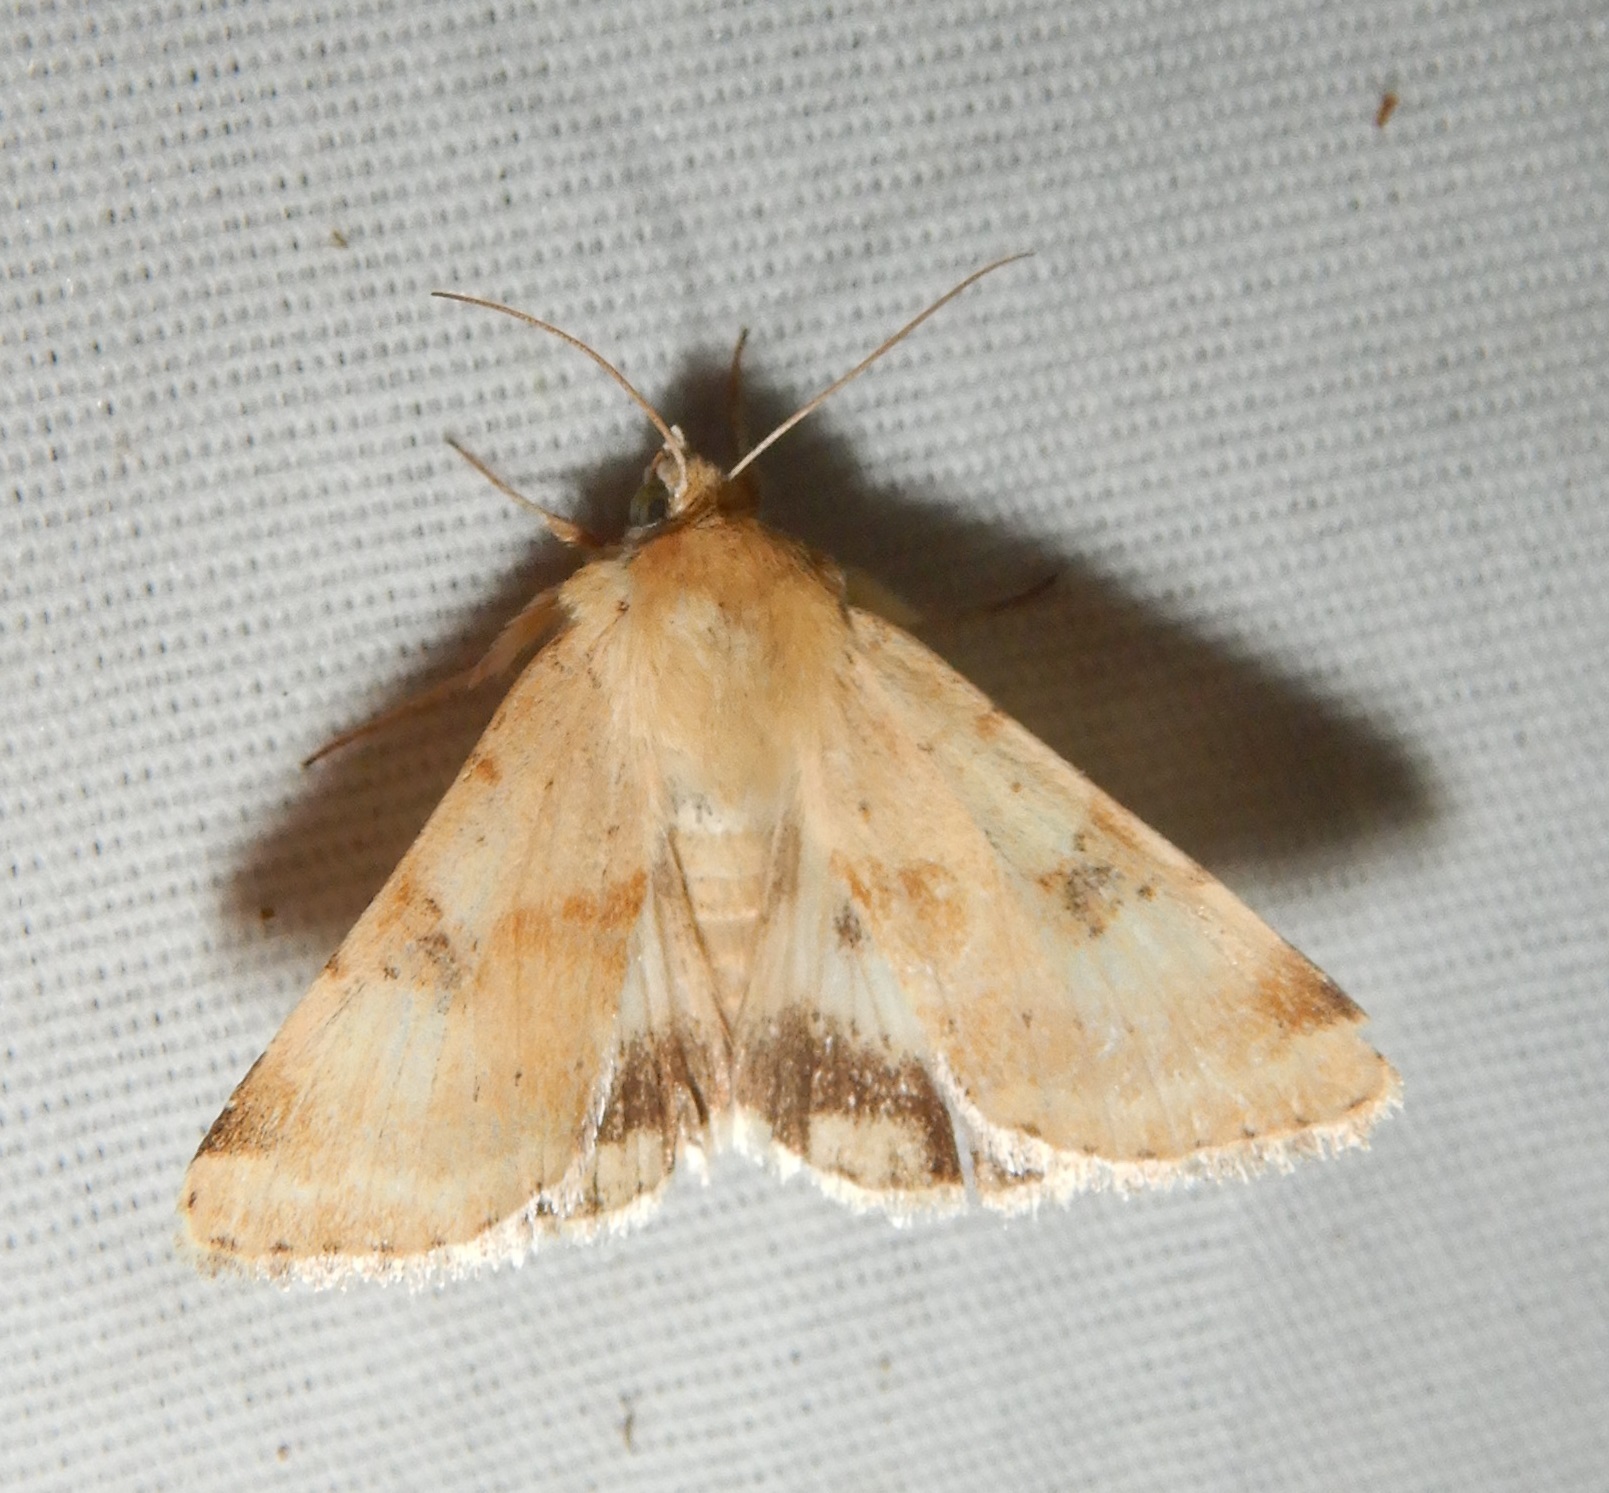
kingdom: Animalia
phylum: Arthropoda
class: Insecta
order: Lepidoptera
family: Noctuidae
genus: Heliothis
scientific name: Heliothis phloxiphaga
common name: Darker spotted straw moth
